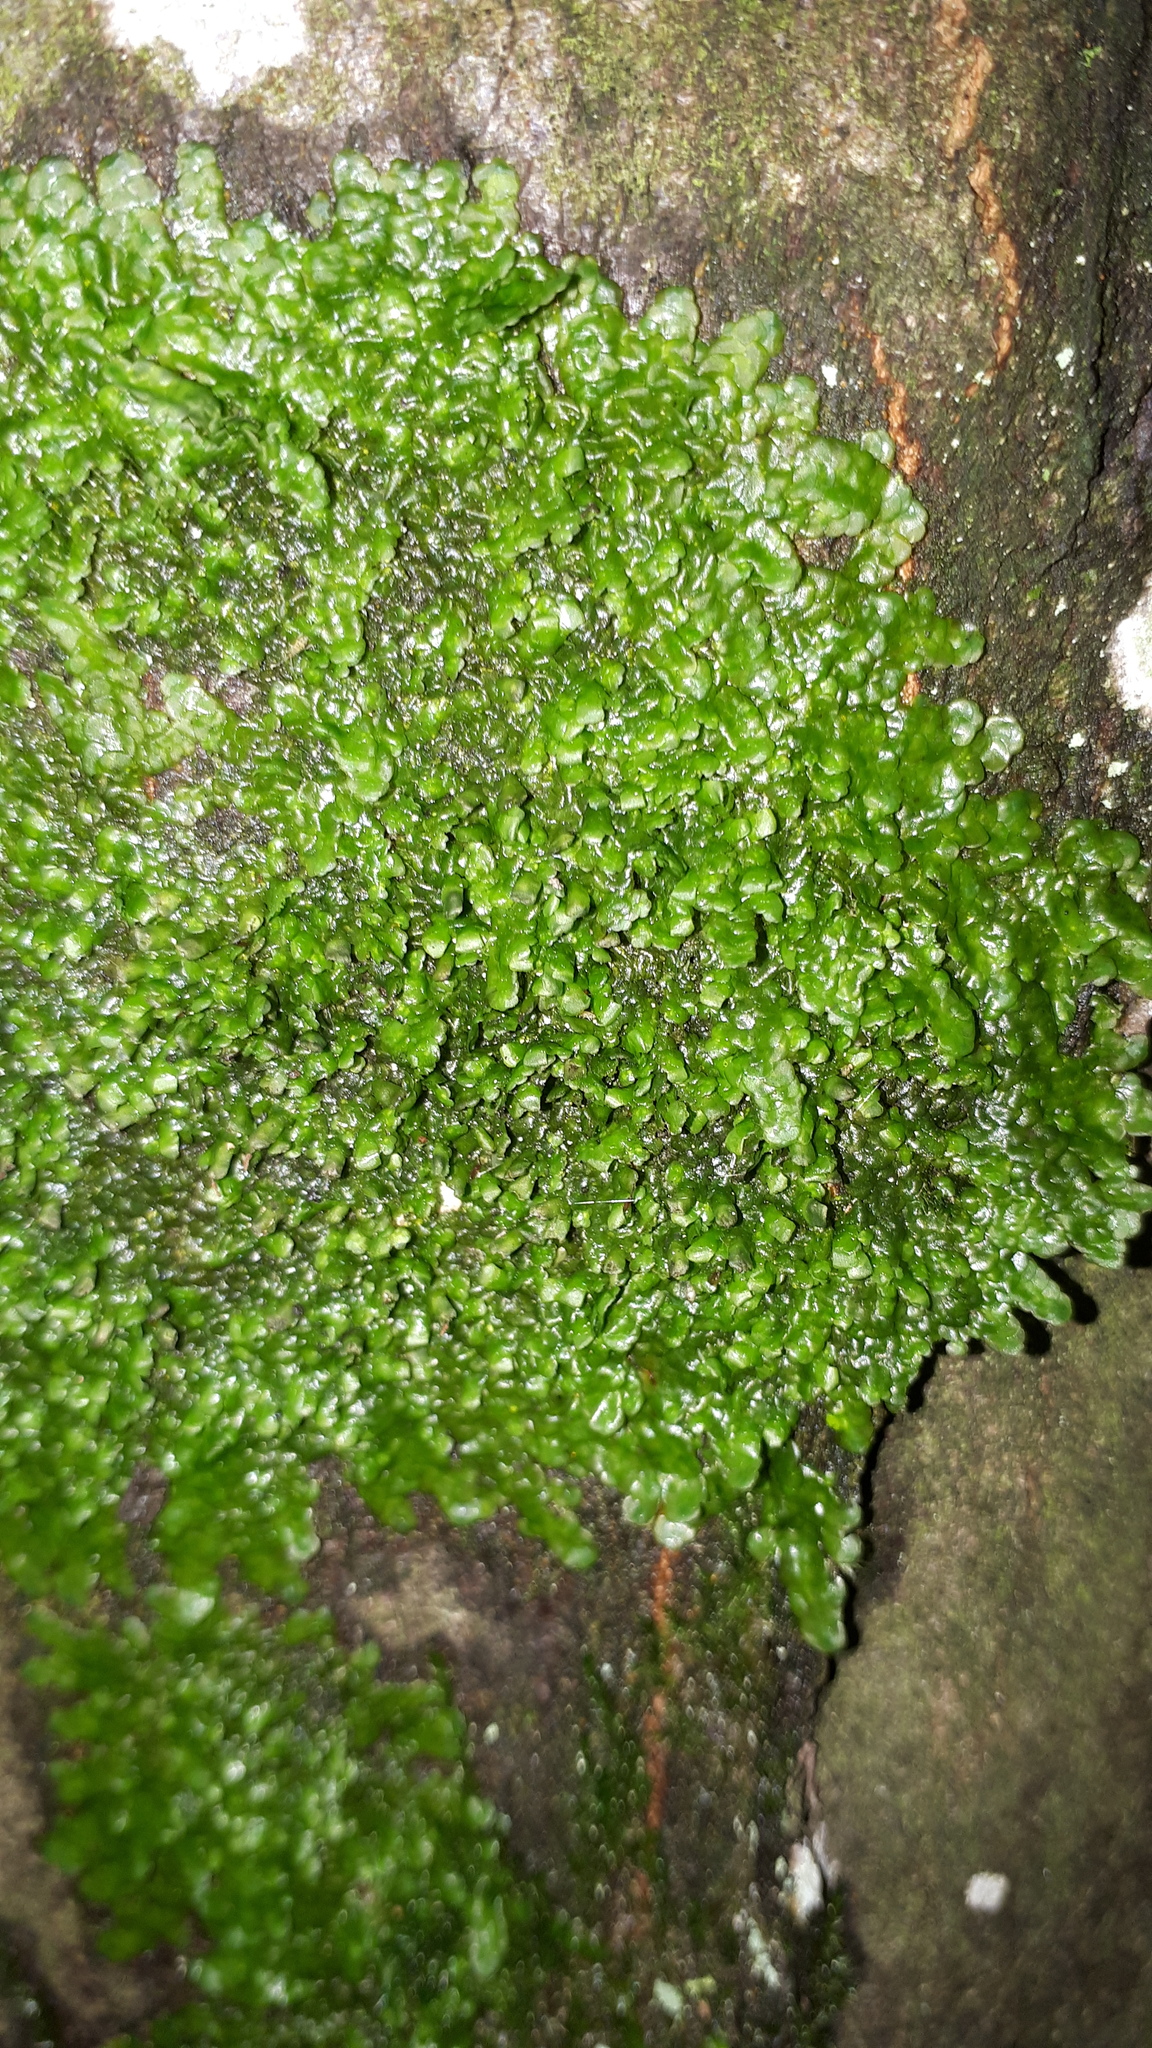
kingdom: Plantae
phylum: Marchantiophyta
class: Jungermanniopsida
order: Porellales
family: Radulaceae
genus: Radula
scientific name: Radula complanata
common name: Flat-leaved scalewort
